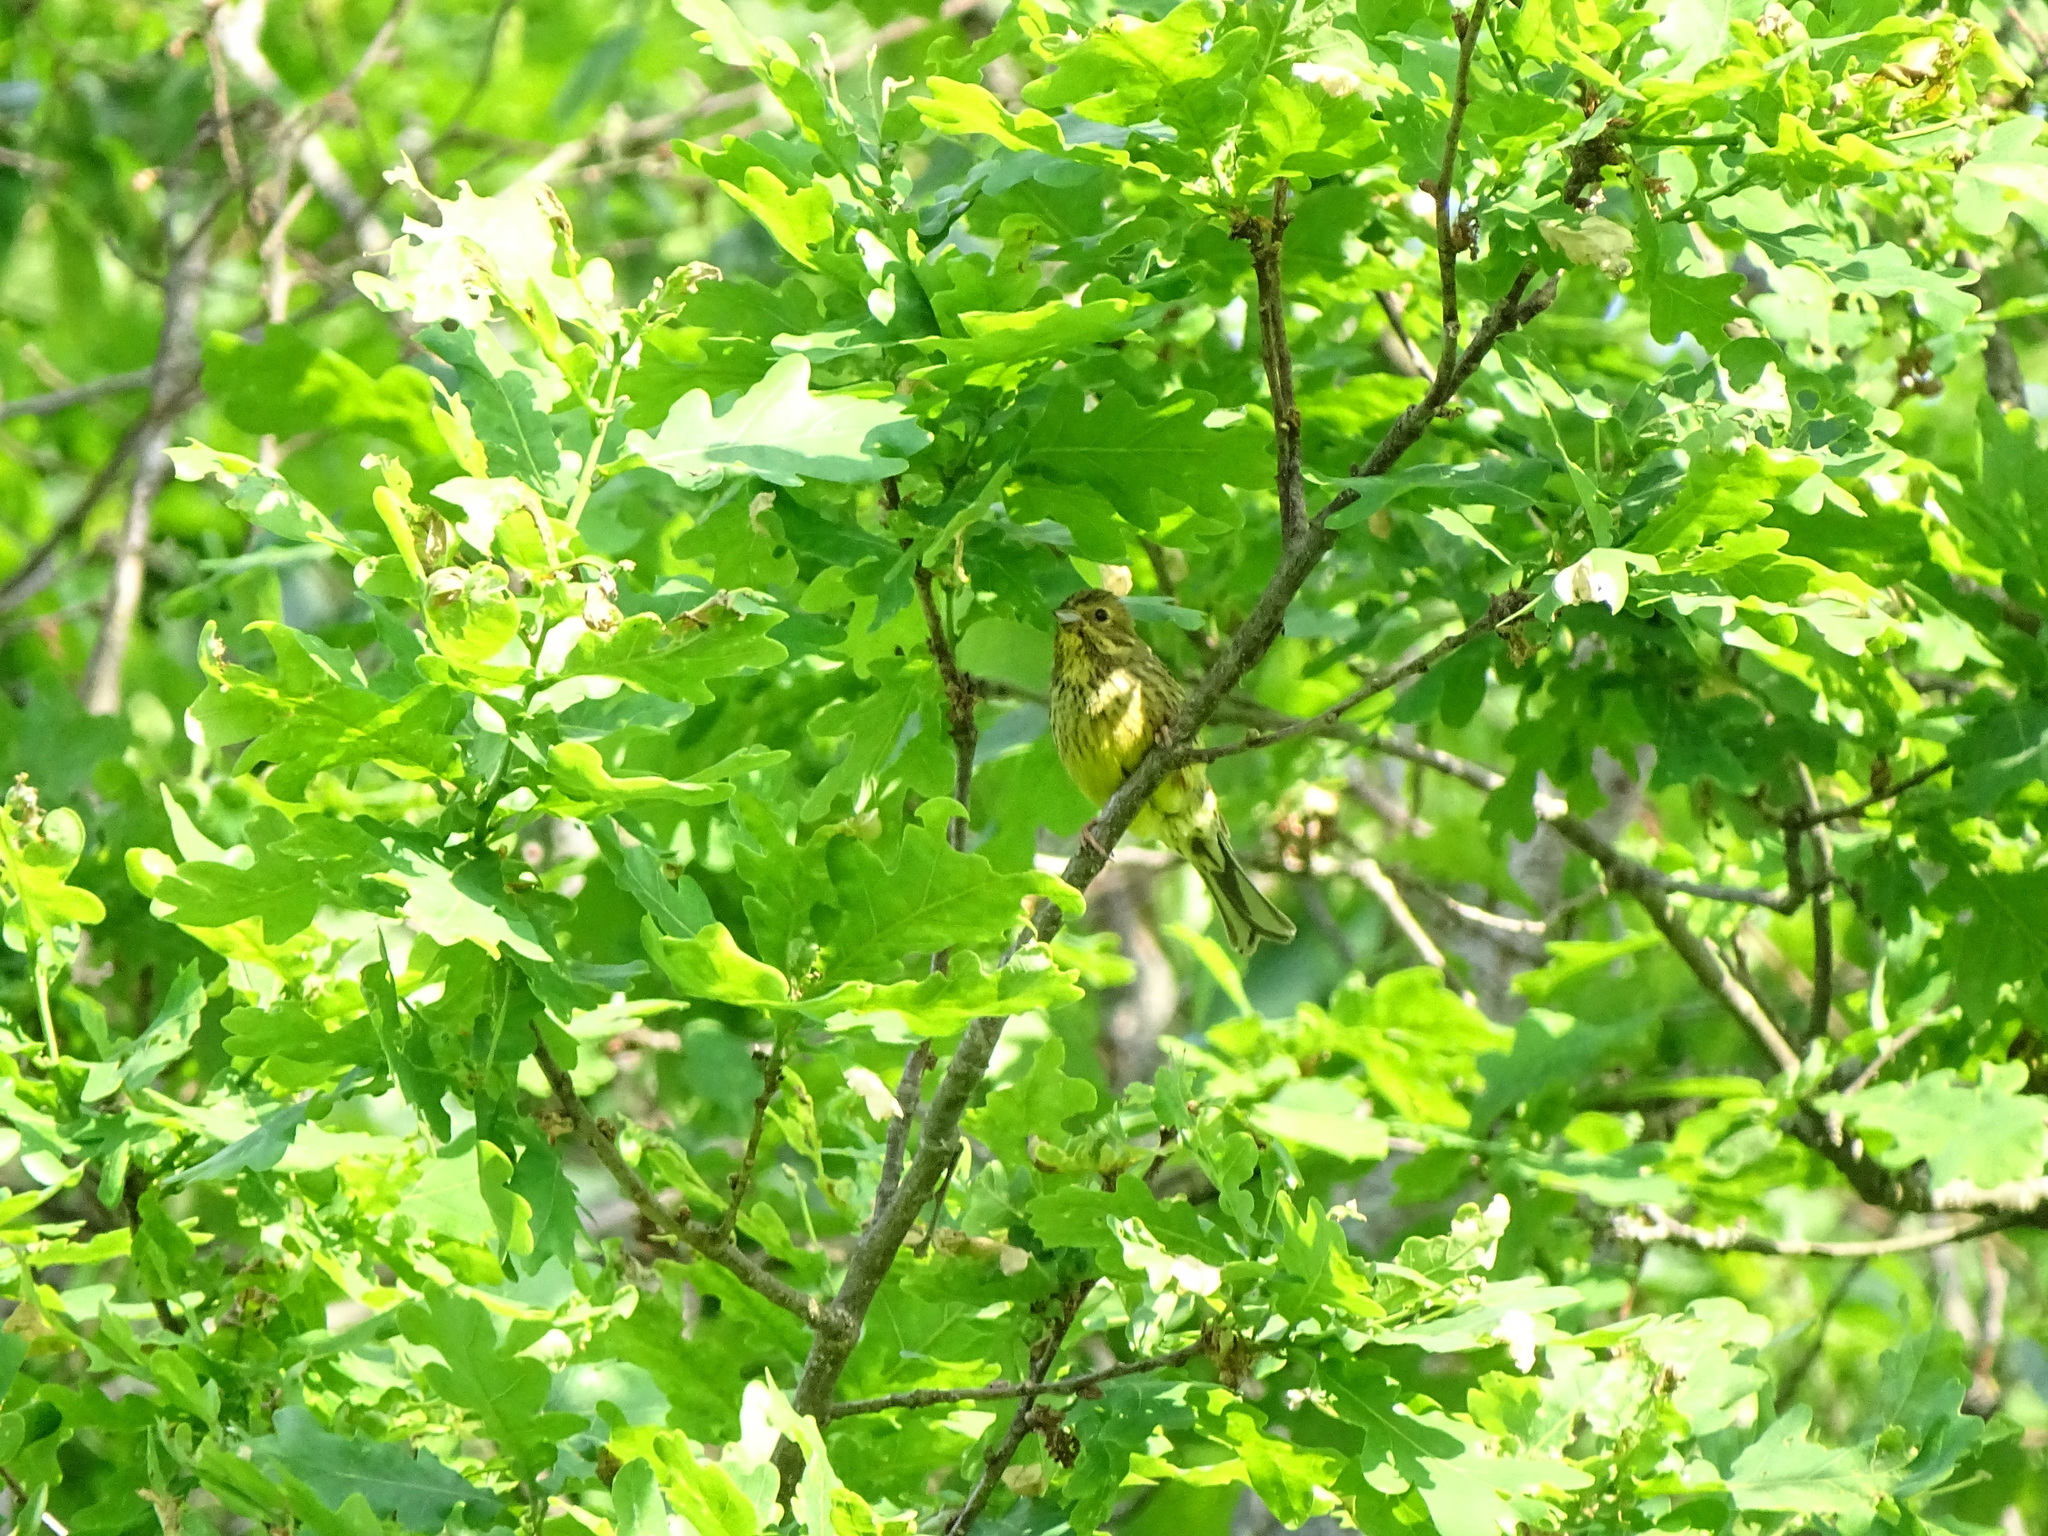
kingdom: Animalia
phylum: Chordata
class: Aves
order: Passeriformes
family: Emberizidae
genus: Emberiza
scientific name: Emberiza citrinella
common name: Yellowhammer
